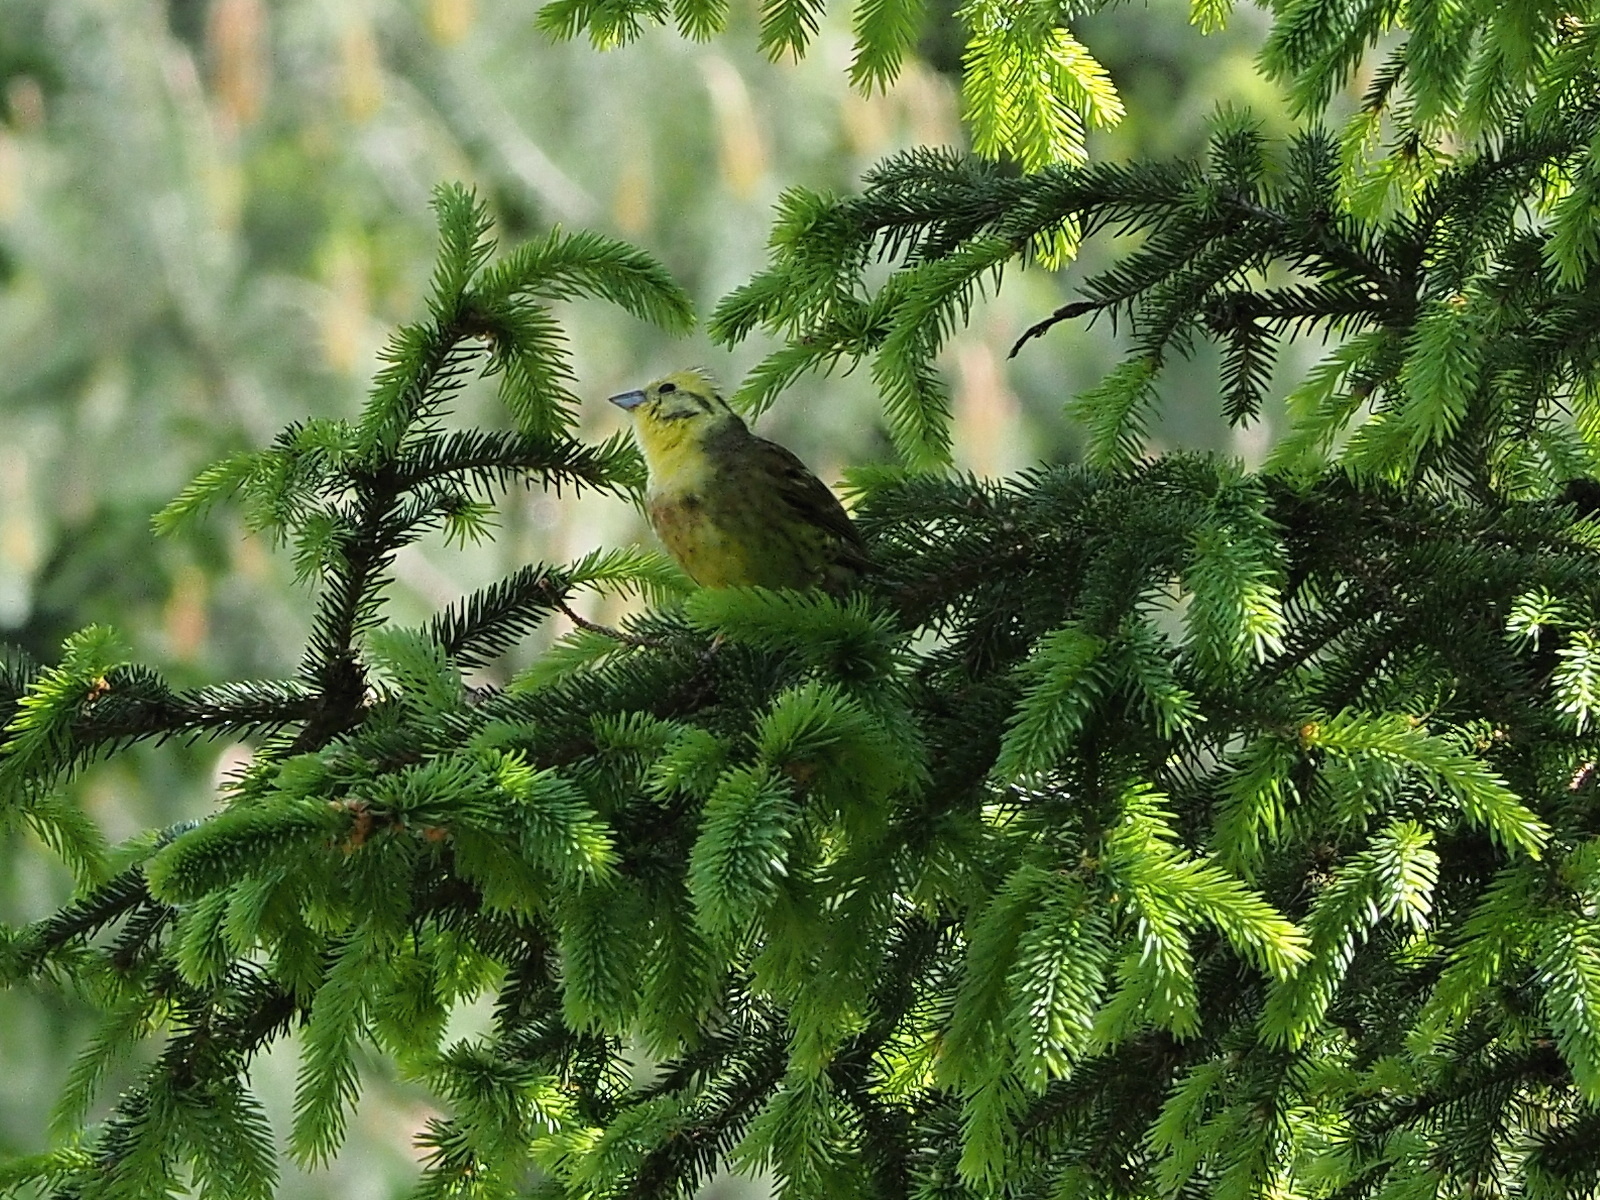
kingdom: Animalia
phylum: Chordata
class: Aves
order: Passeriformes
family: Emberizidae
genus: Emberiza
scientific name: Emberiza citrinella
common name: Yellowhammer
